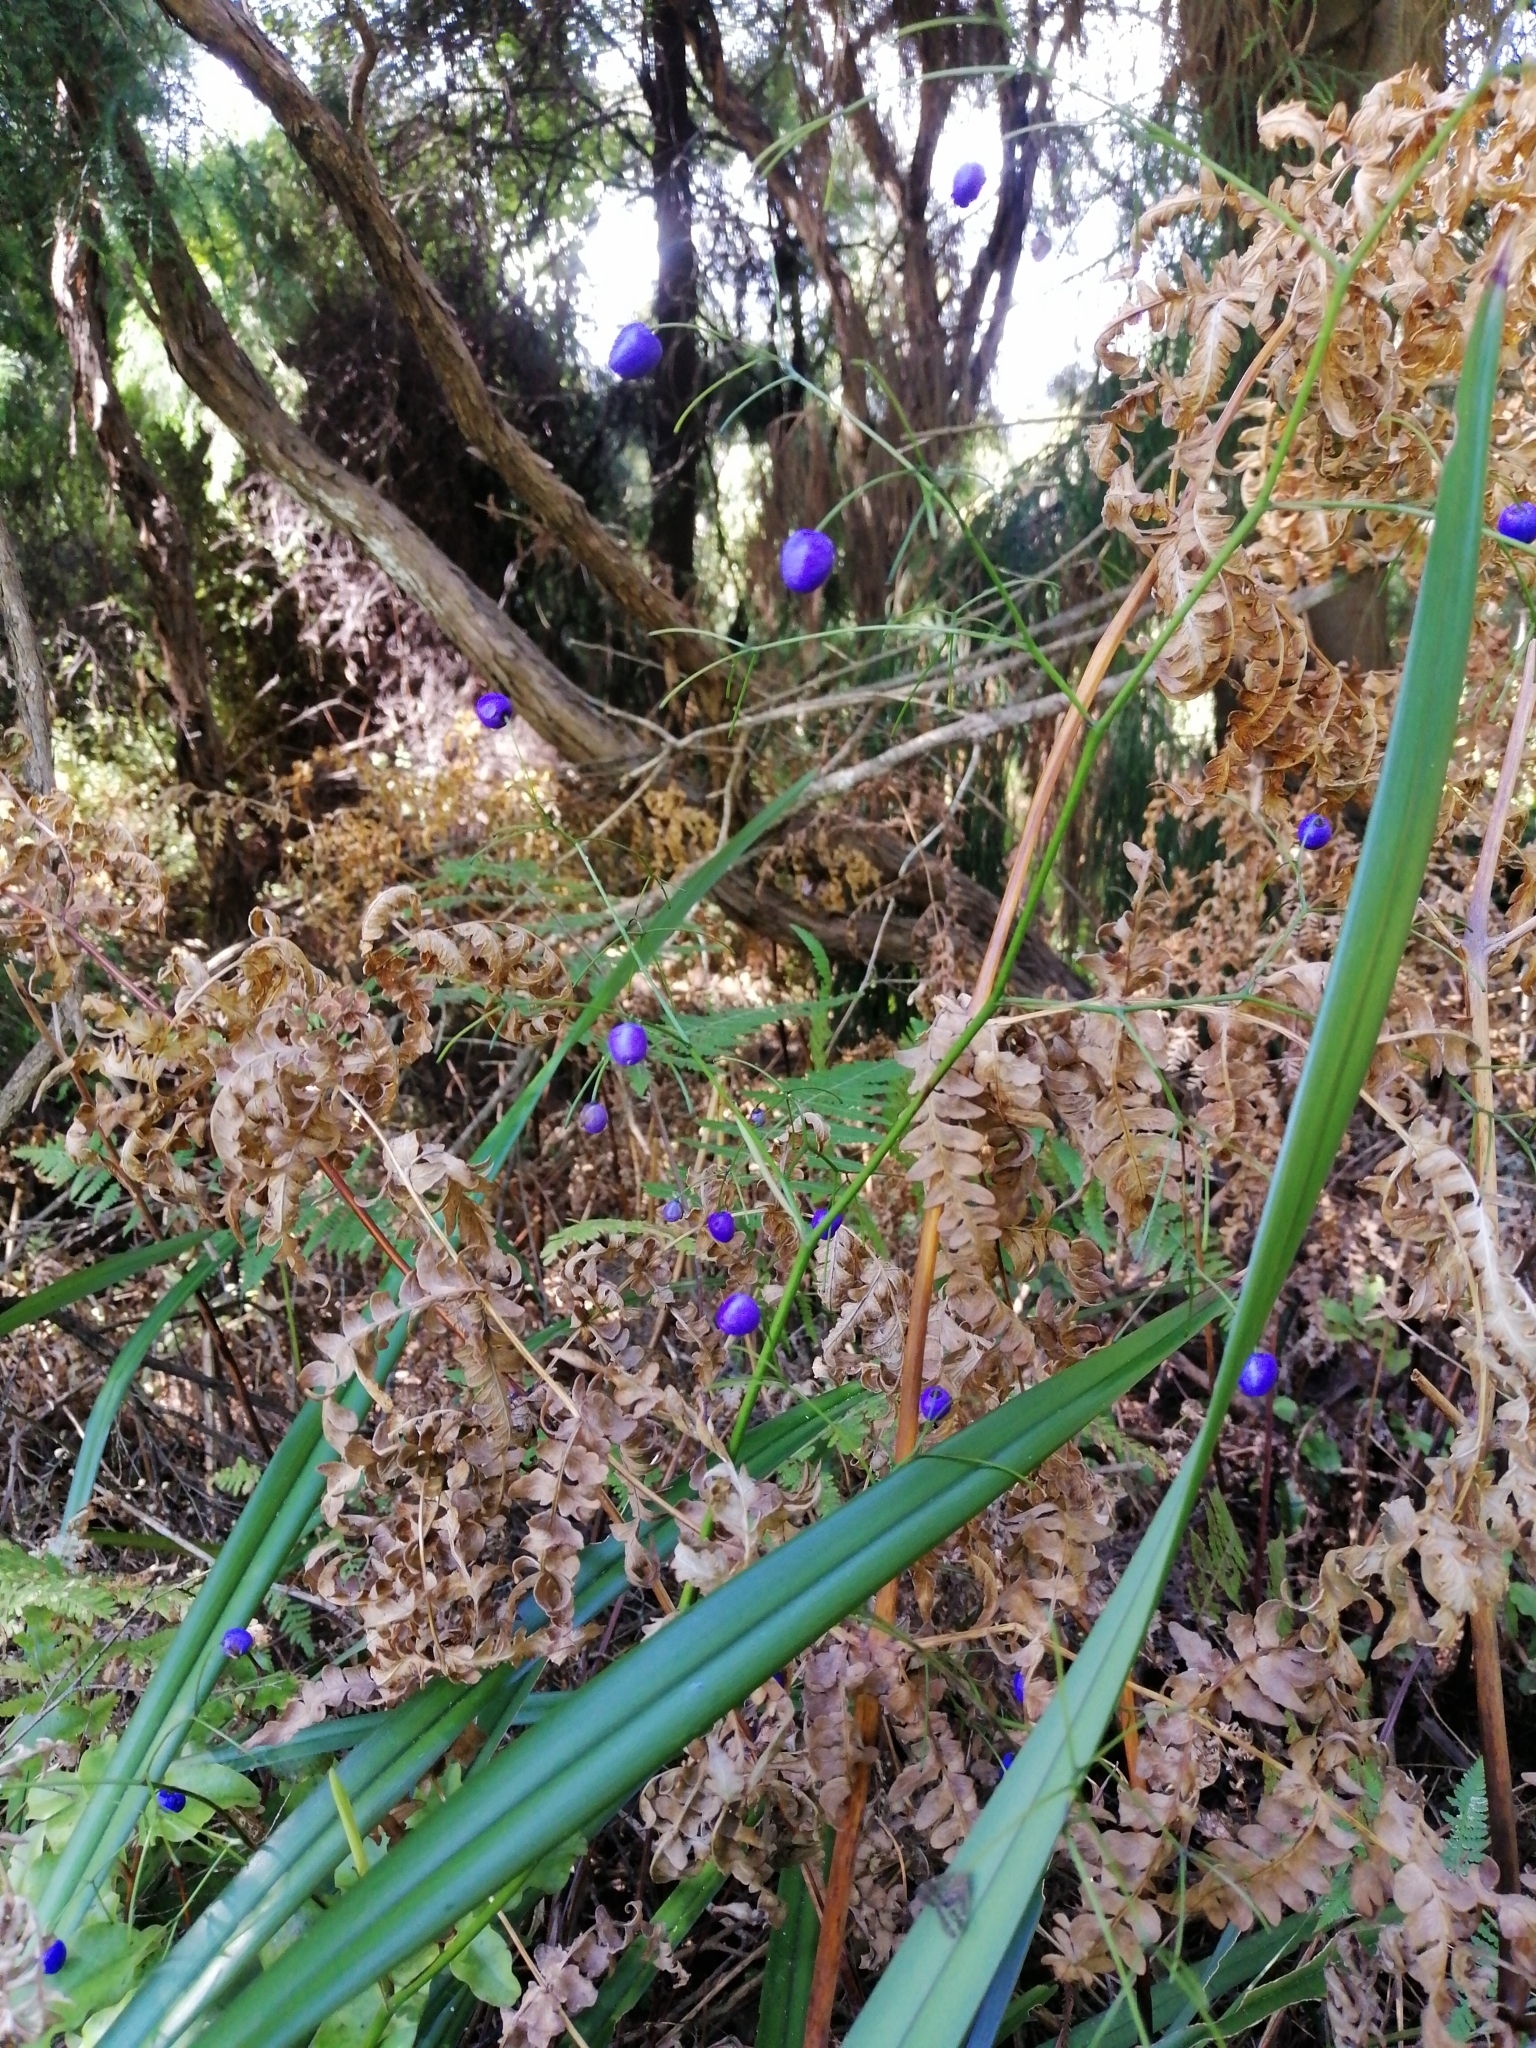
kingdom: Plantae
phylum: Tracheophyta
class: Liliopsida
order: Asparagales
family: Asphodelaceae
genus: Dianella
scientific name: Dianella nigra
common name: New zealand-blueberry
